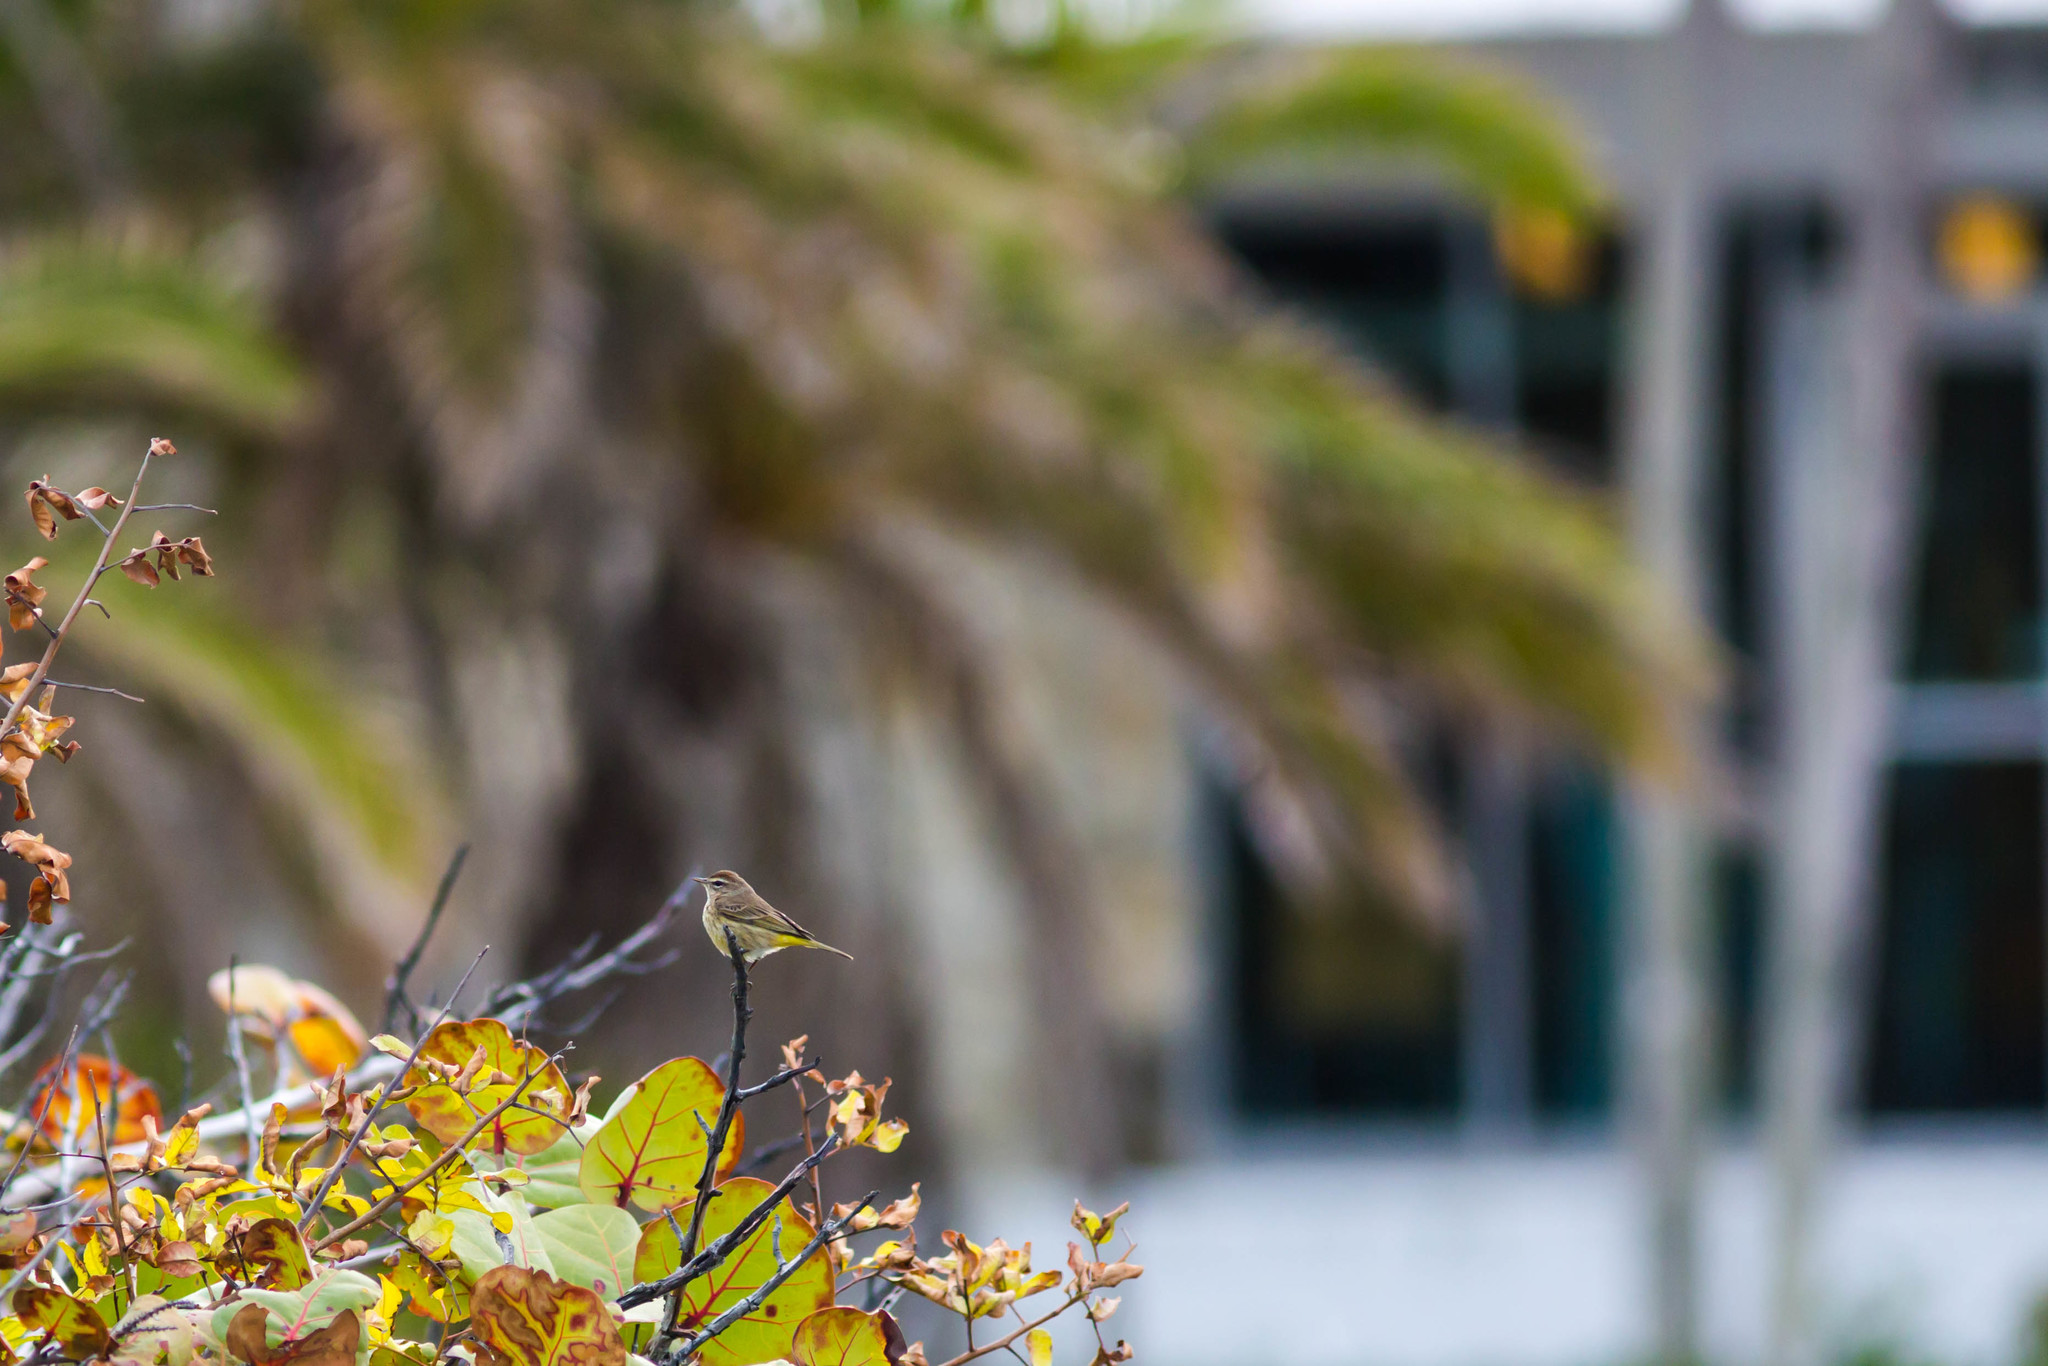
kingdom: Animalia
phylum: Chordata
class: Aves
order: Passeriformes
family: Parulidae
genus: Setophaga
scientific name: Setophaga palmarum
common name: Palm warbler
